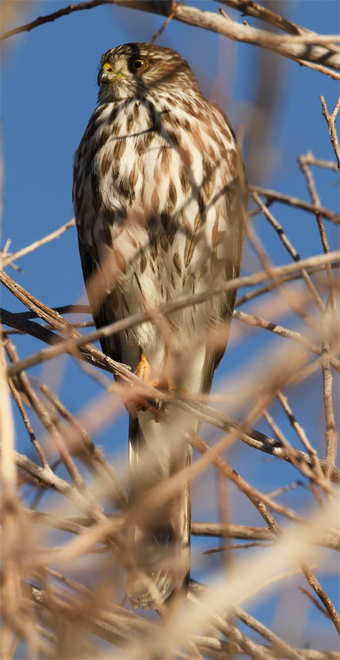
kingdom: Animalia
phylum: Chordata
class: Aves
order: Accipitriformes
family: Accipitridae
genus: Accipiter
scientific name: Accipiter striatus
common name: Sharp-shinned hawk
